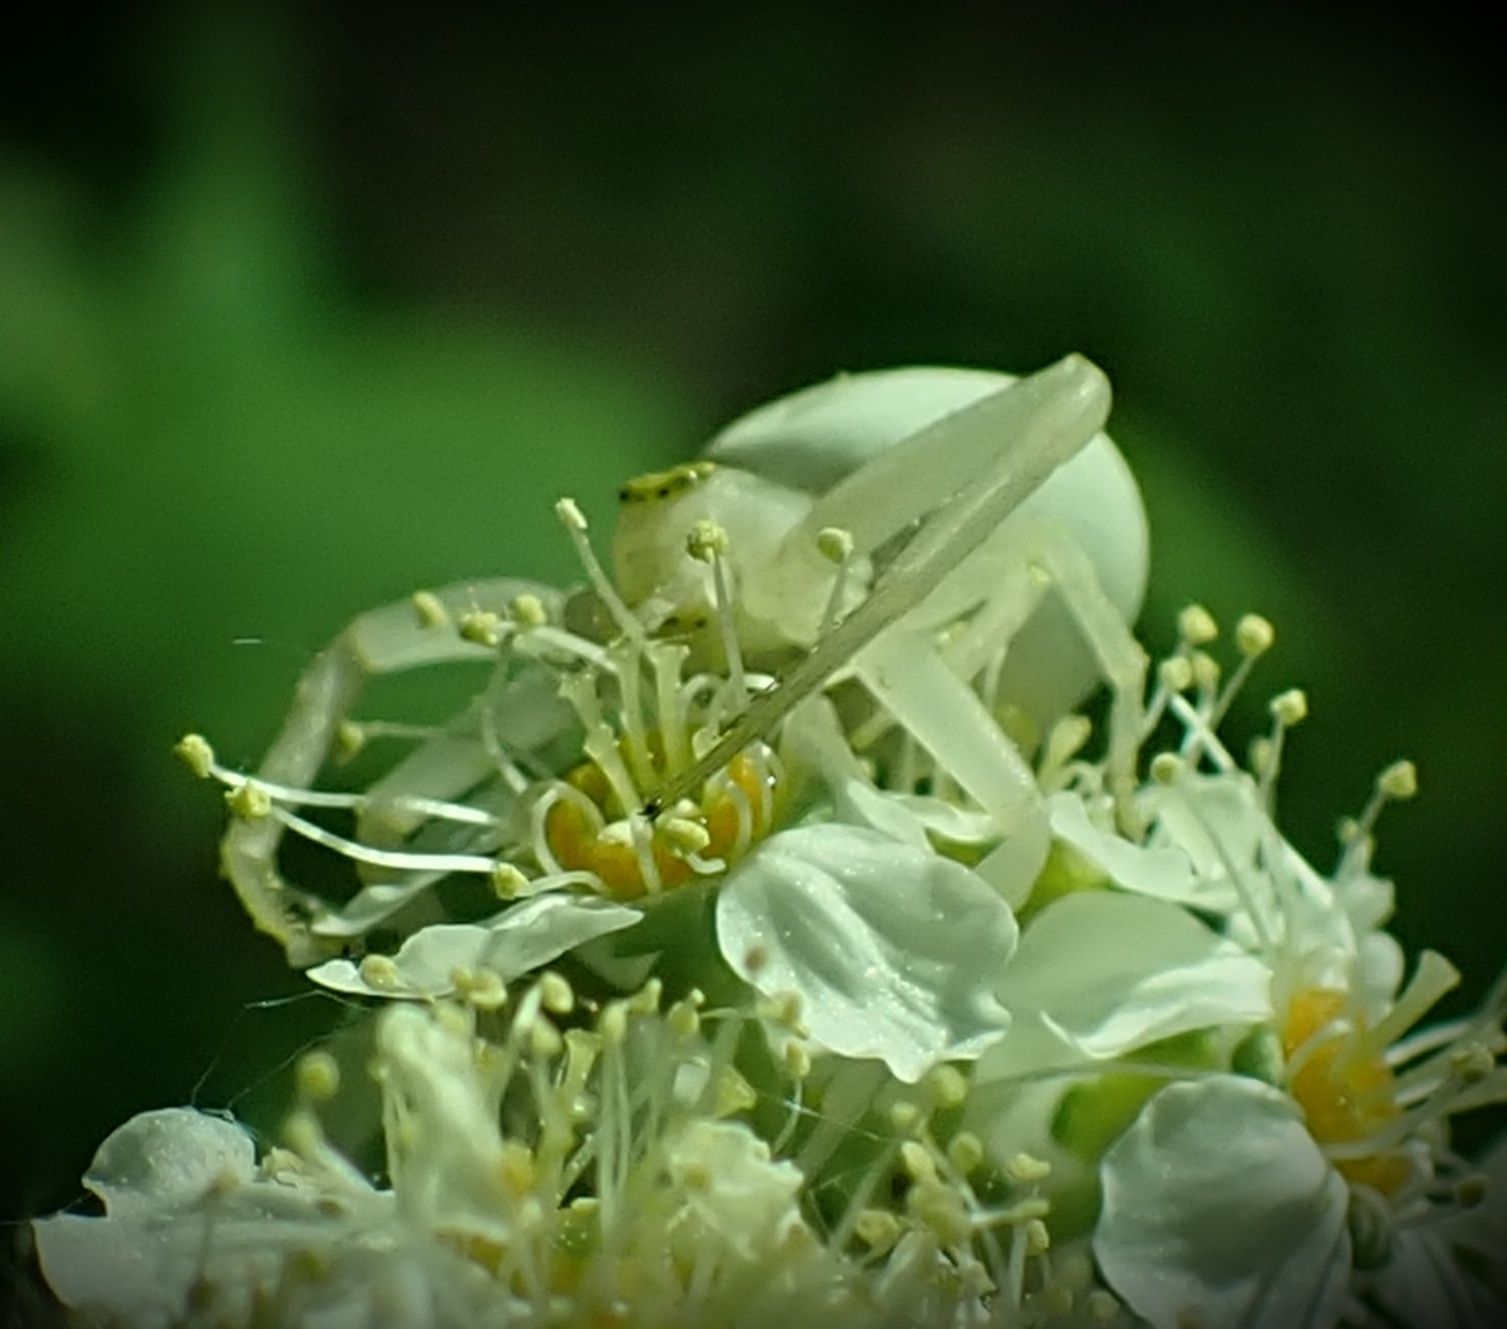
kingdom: Animalia
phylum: Arthropoda
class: Arachnida
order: Araneae
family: Thomisidae
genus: Misumena
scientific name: Misumena vatia
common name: Goldenrod crab spider
